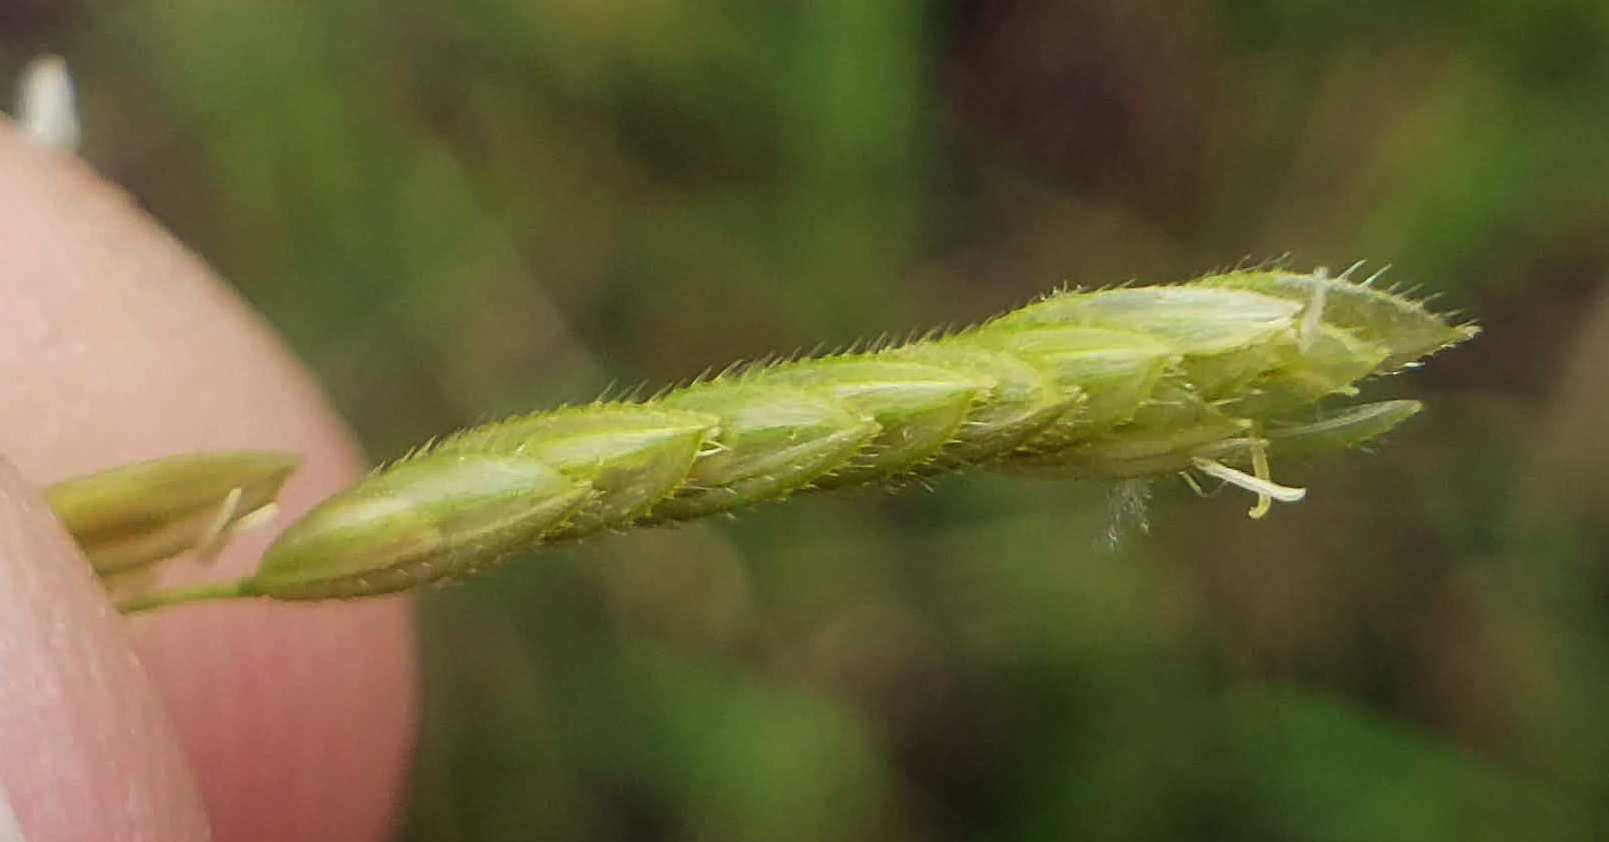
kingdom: Plantae
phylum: Tracheophyta
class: Liliopsida
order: Poales
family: Poaceae
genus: Leersia
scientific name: Leersia oryzoides
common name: Cut-grass
